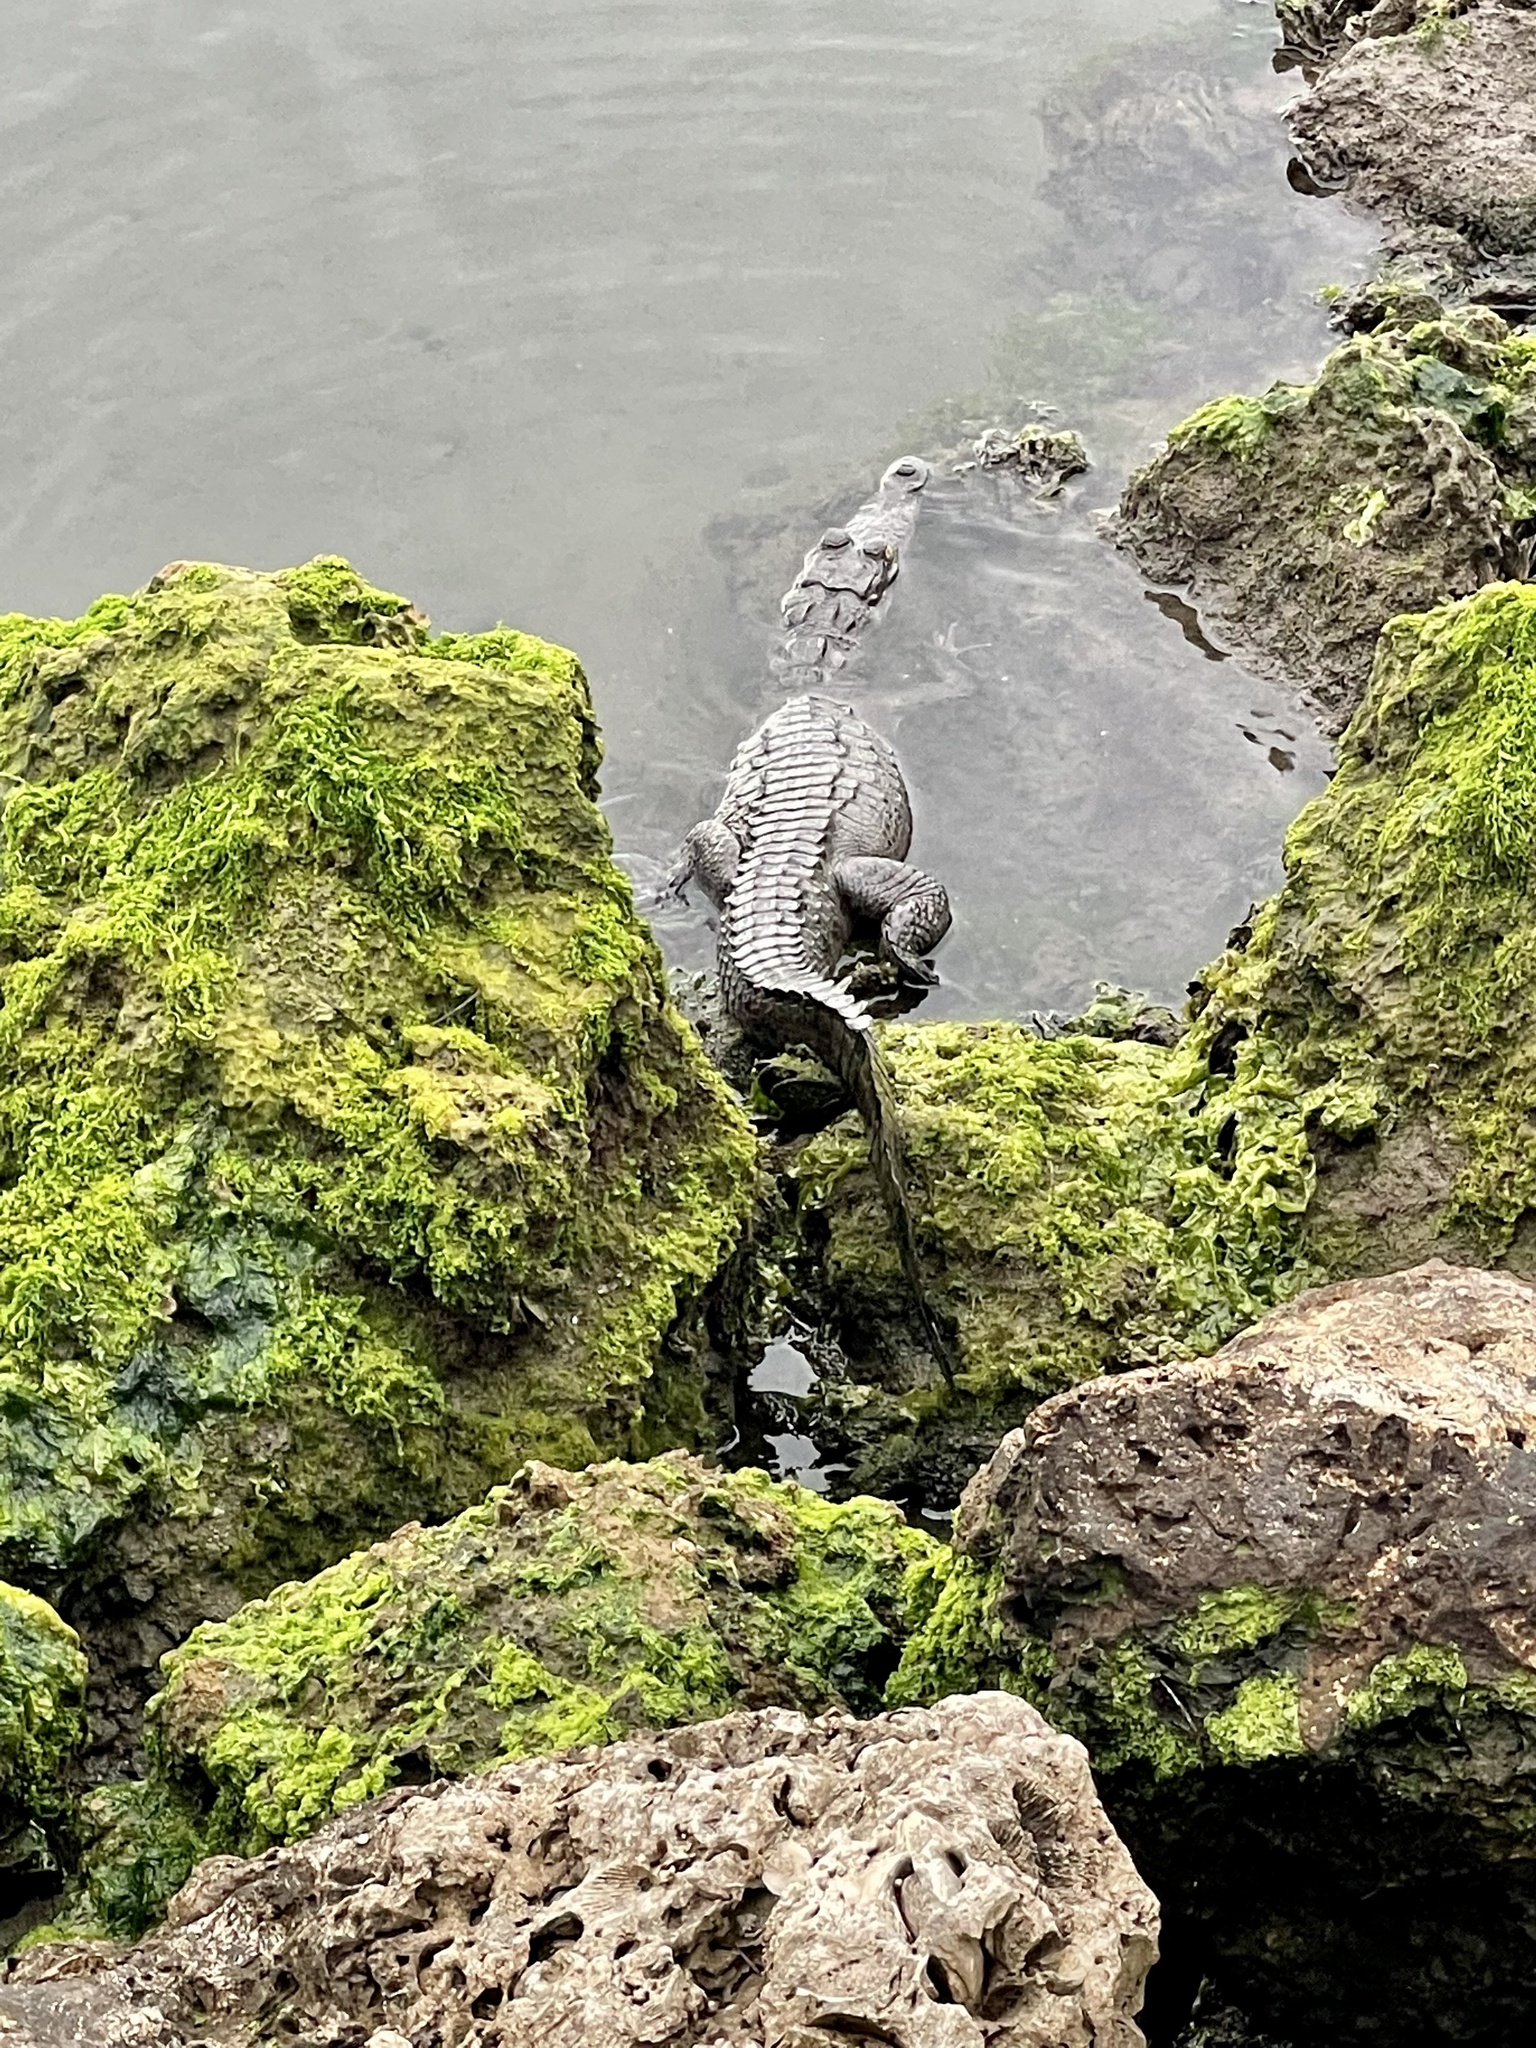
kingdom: Animalia
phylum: Chordata
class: Crocodylia
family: Crocodylidae
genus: Crocodylus
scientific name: Crocodylus acutus
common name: American crocodile
